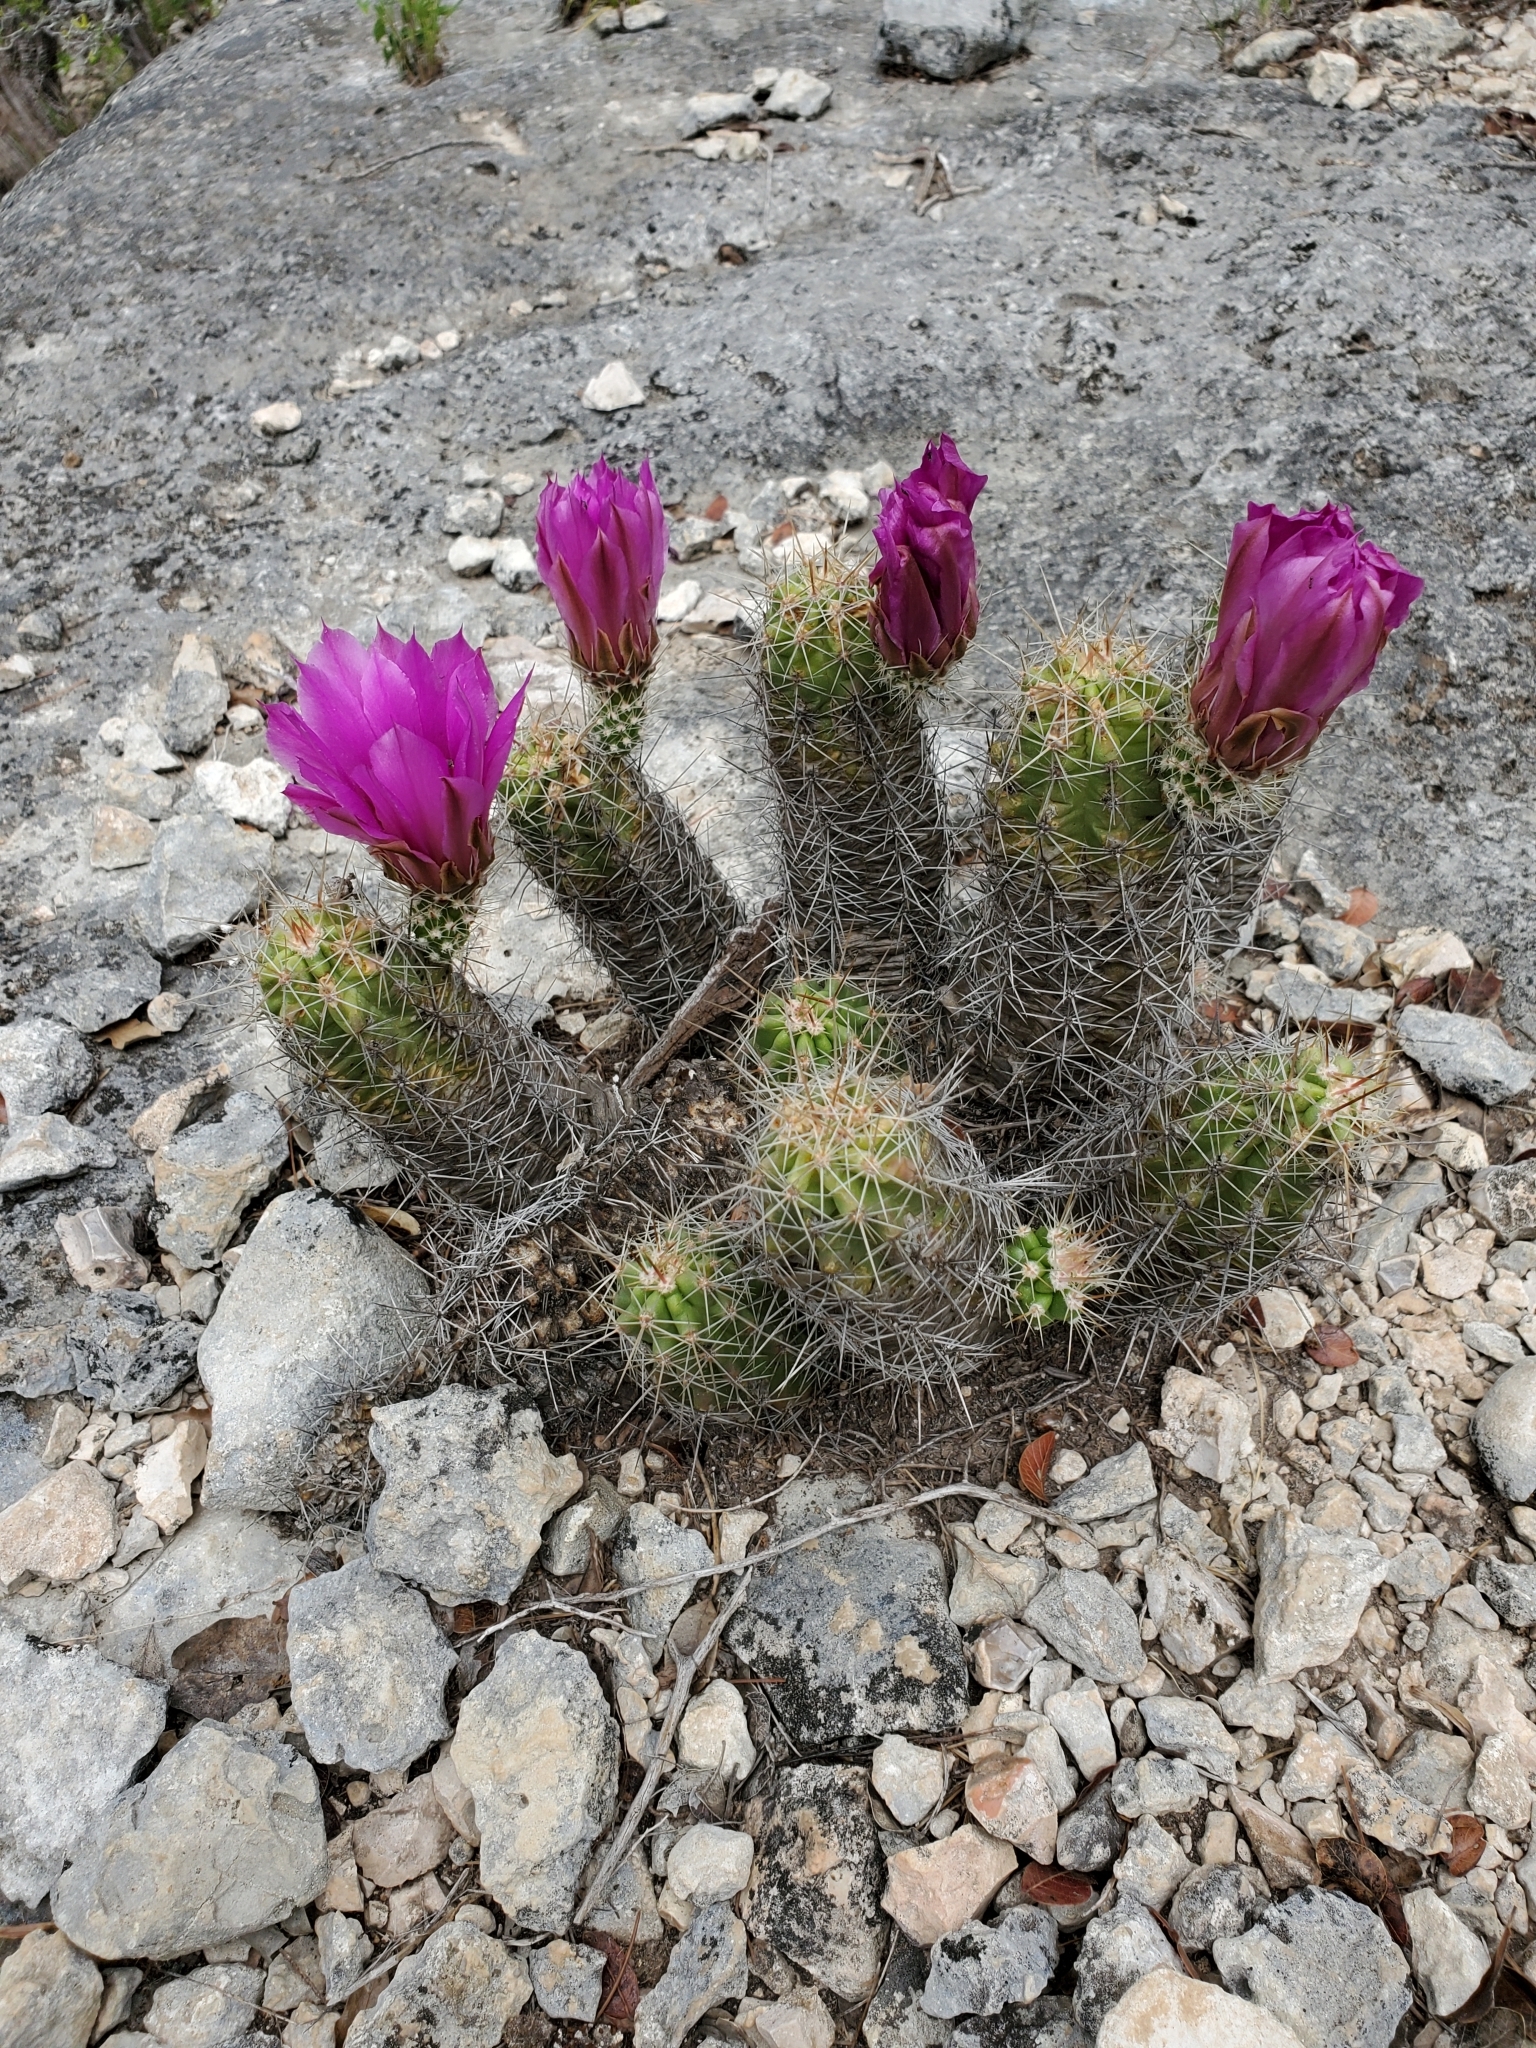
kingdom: Plantae
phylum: Tracheophyta
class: Magnoliopsida
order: Caryophyllales
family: Cactaceae
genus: Echinocereus
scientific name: Echinocereus enneacanthus
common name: Pitaya
